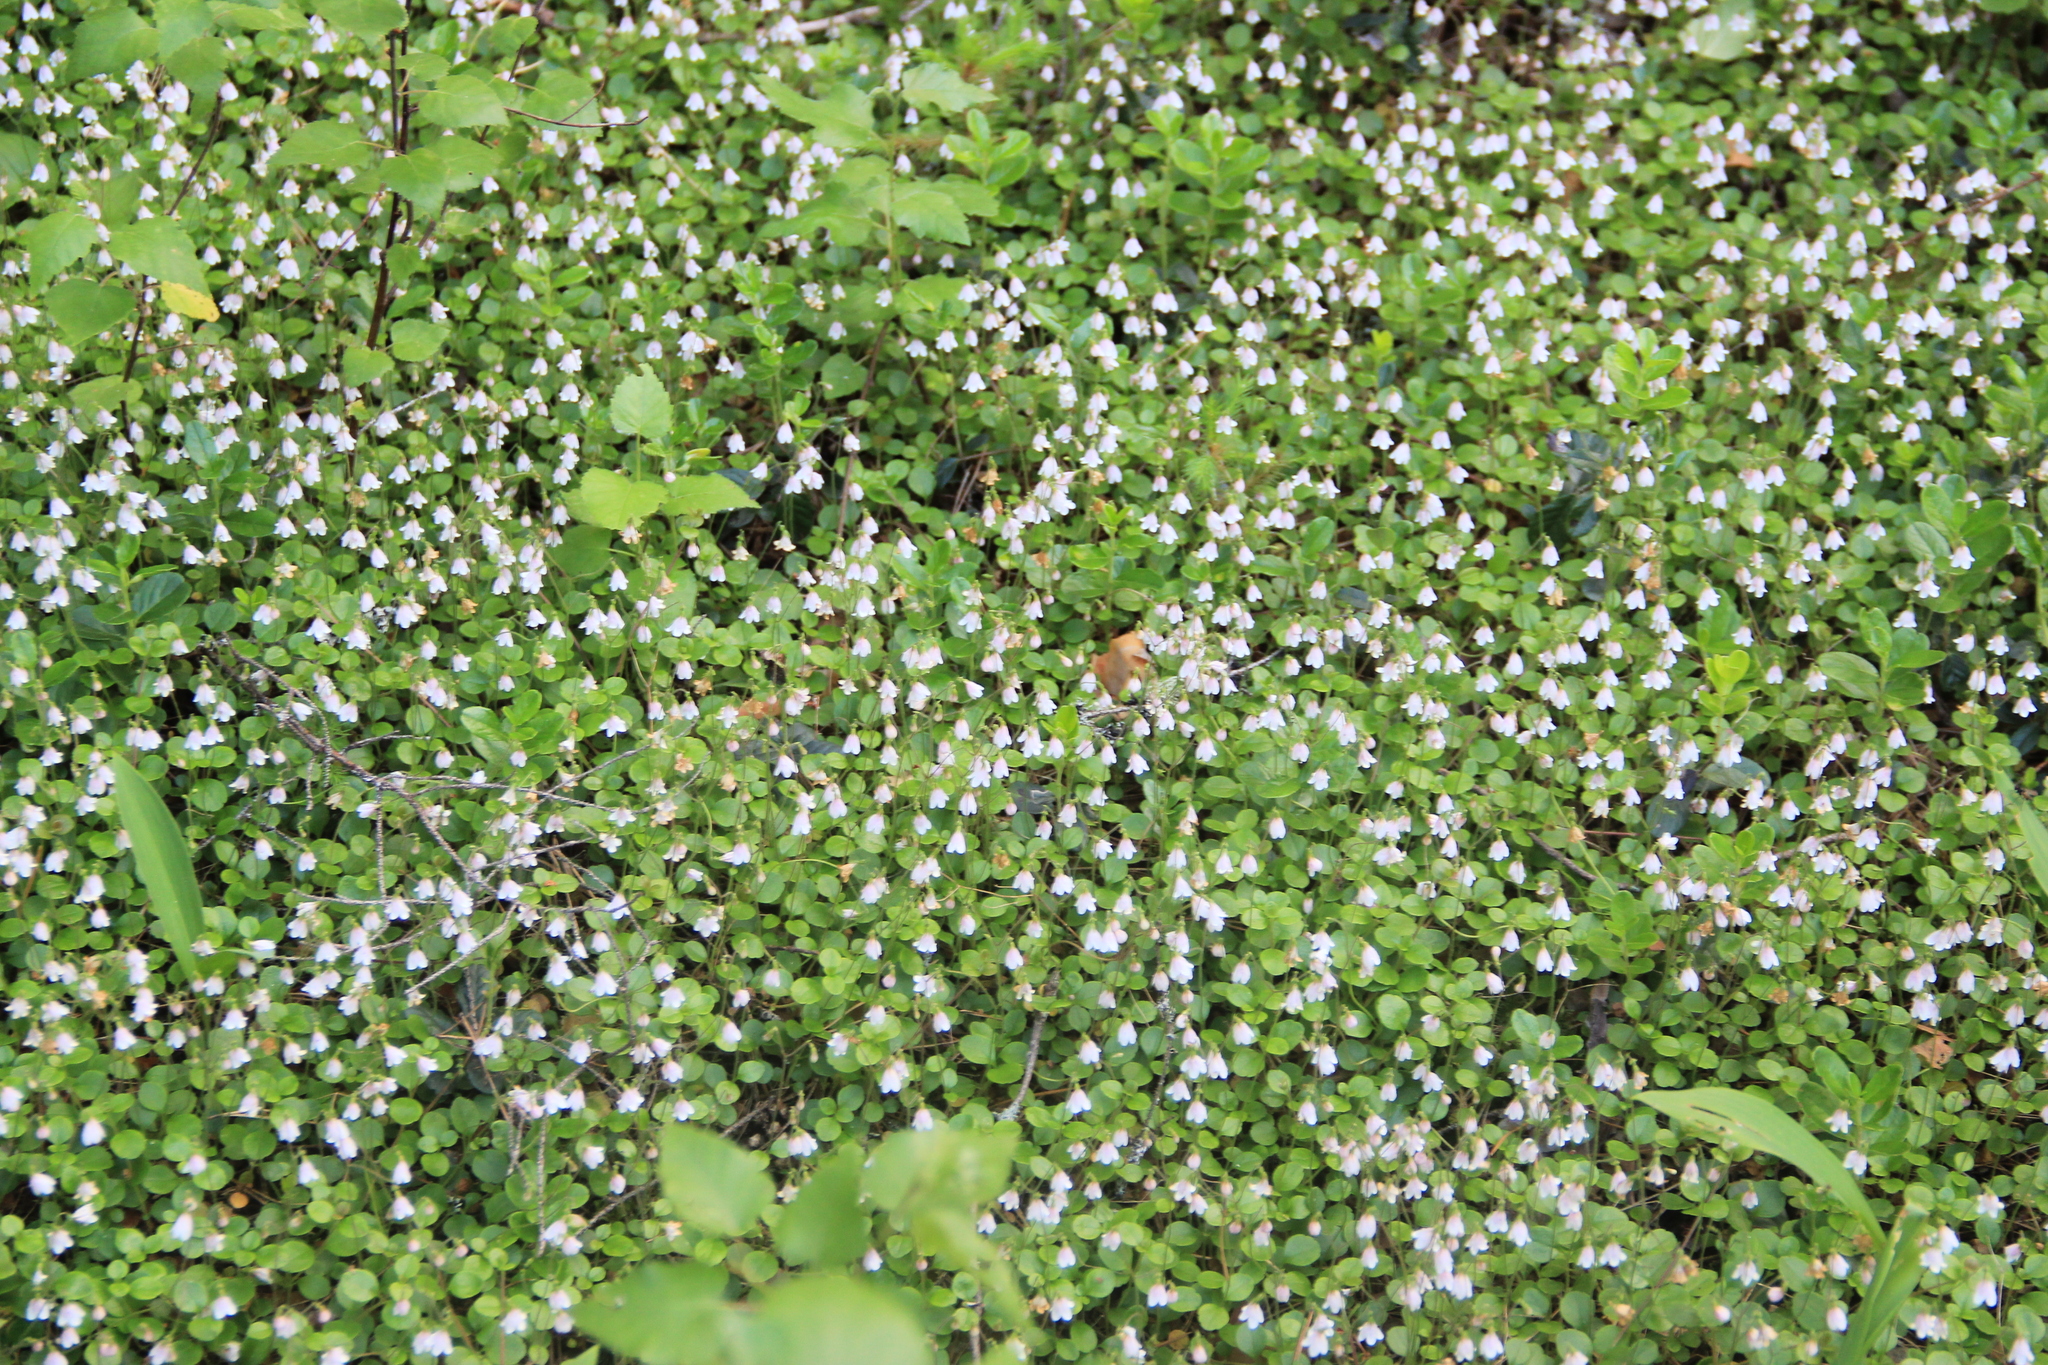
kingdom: Plantae
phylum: Tracheophyta
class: Magnoliopsida
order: Dipsacales
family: Caprifoliaceae
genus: Linnaea
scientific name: Linnaea borealis
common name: Twinflower
